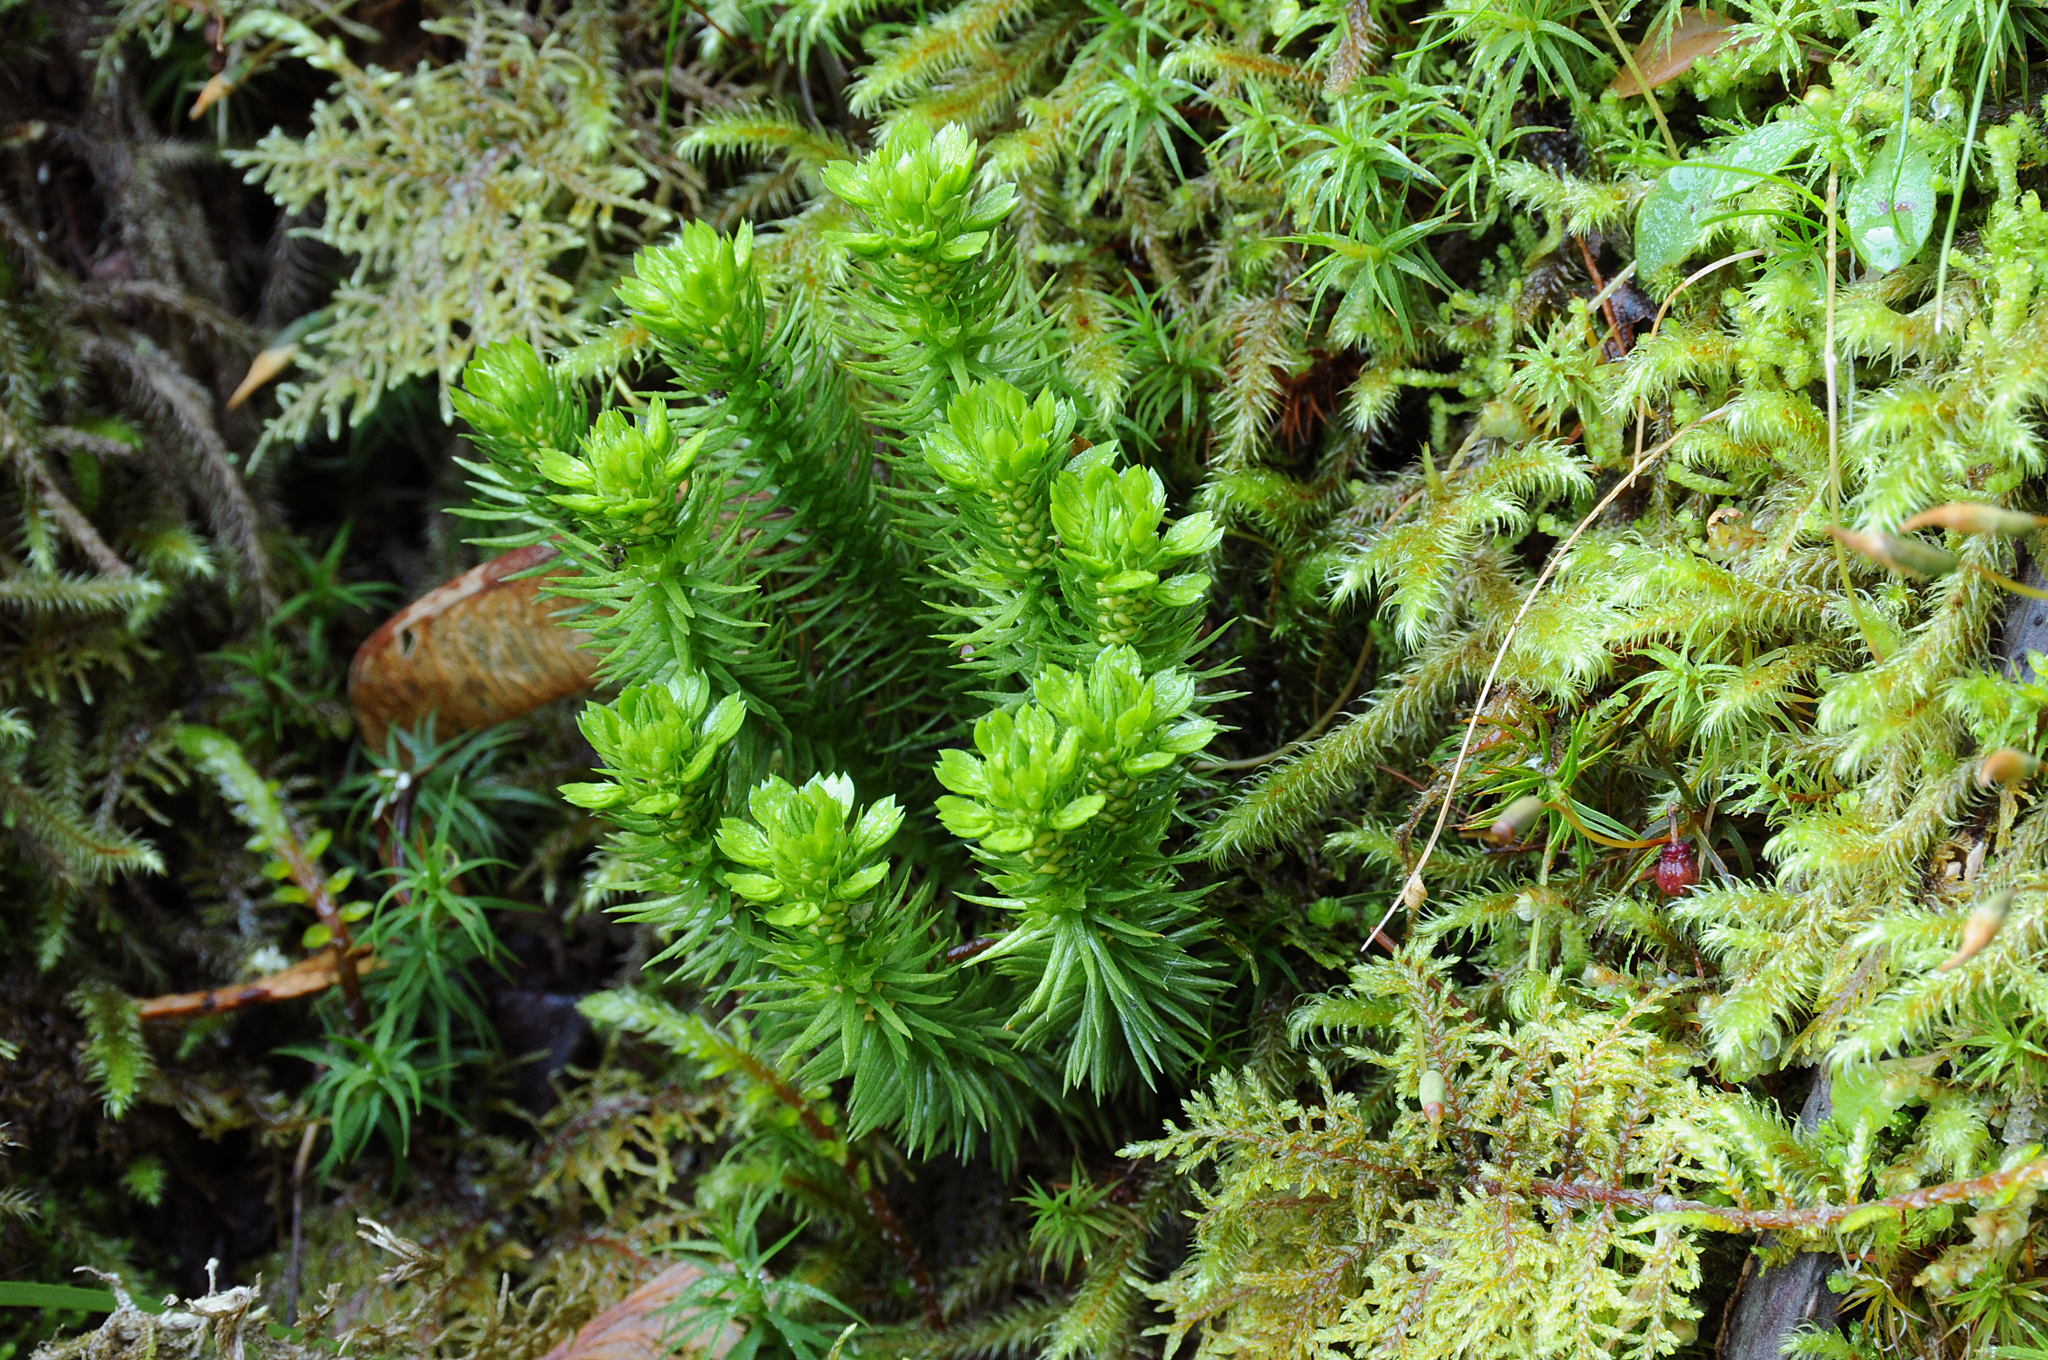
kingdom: Plantae
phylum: Tracheophyta
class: Lycopodiopsida
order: Lycopodiales
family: Lycopodiaceae
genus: Huperzia
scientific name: Huperzia miyoshiana
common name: Chinese clubmoss
